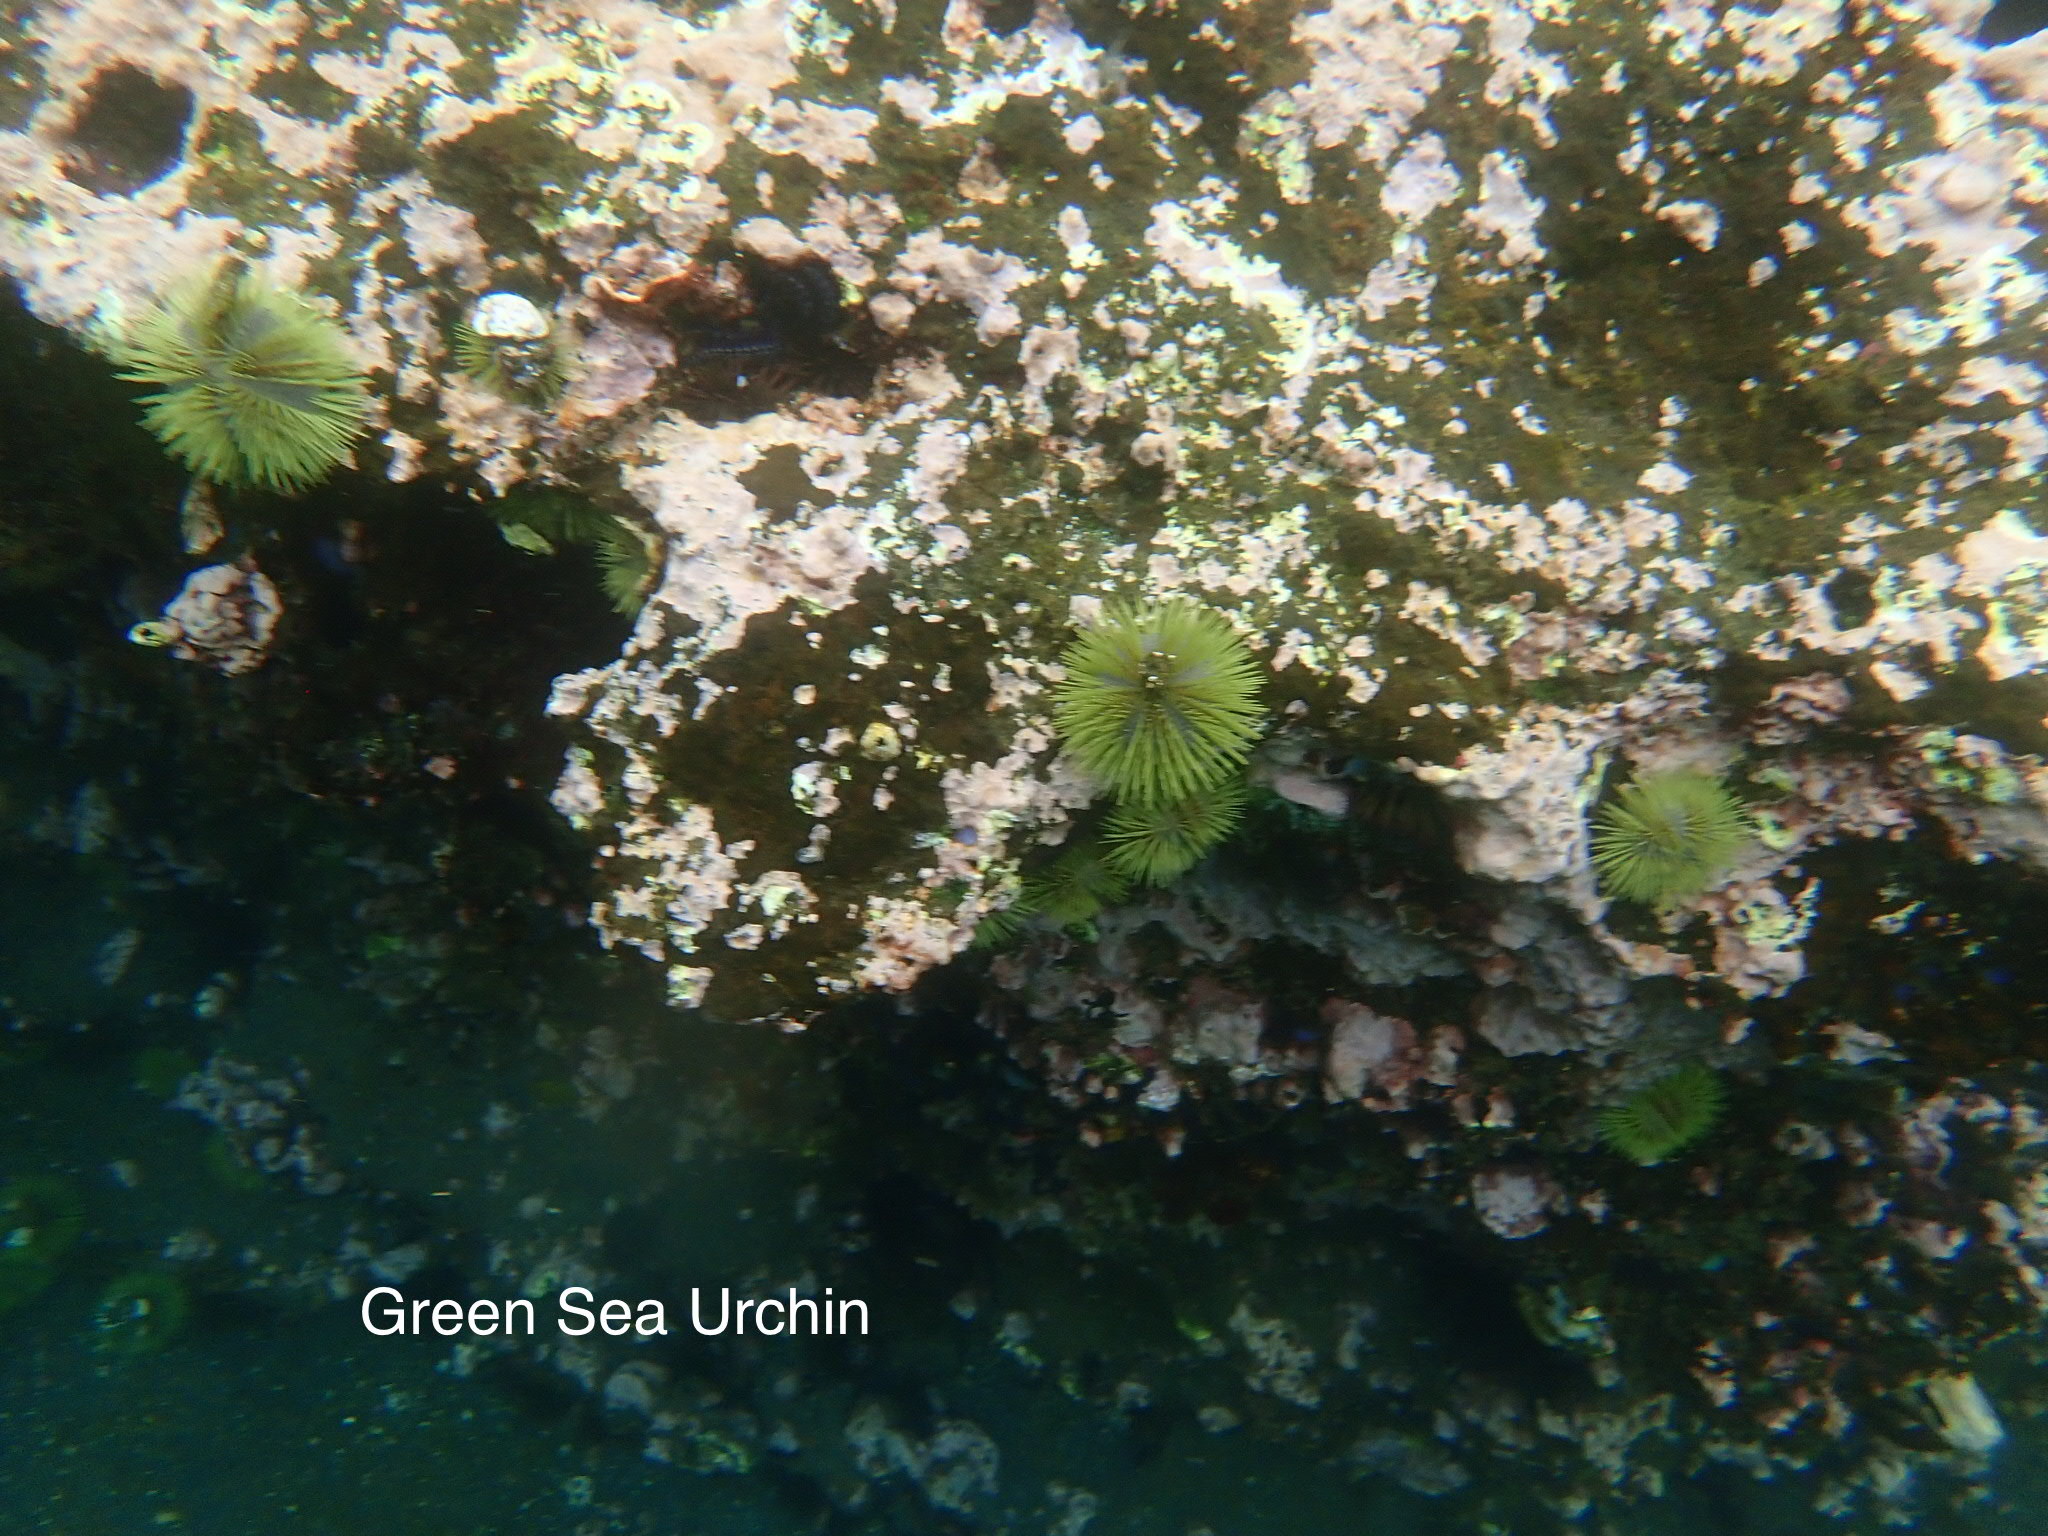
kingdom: Animalia
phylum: Echinodermata
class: Echinoidea
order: Camarodonta
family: Toxopneustidae
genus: Lytechinus
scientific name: Lytechinus semituberculatus
